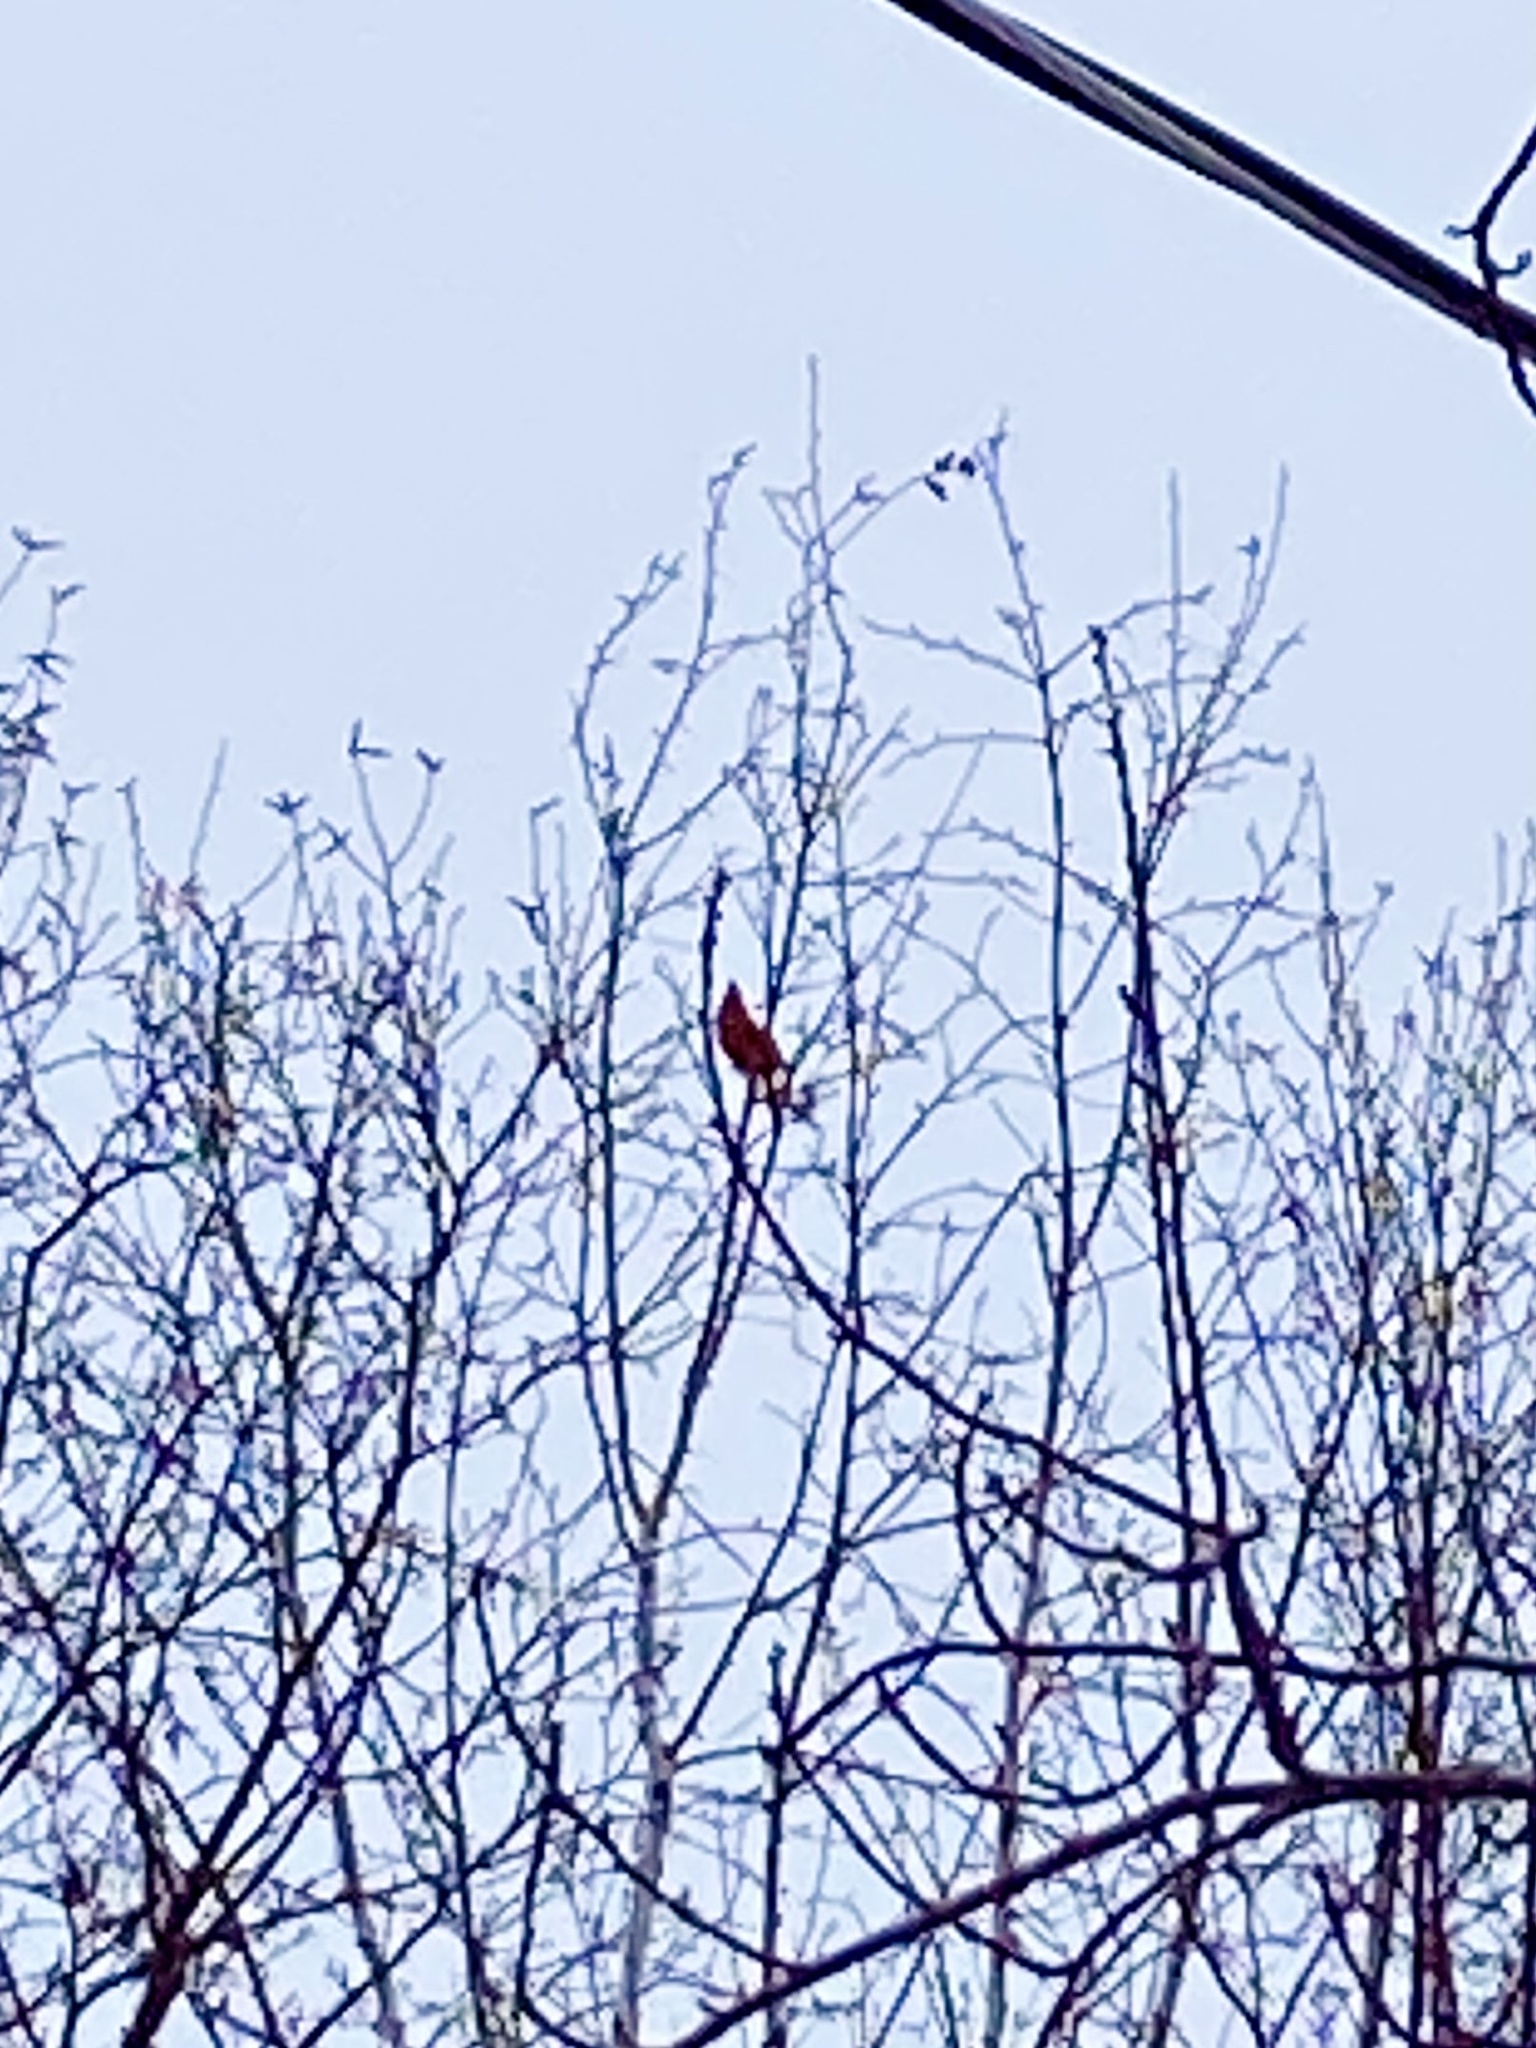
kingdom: Animalia
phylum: Chordata
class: Aves
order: Passeriformes
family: Cardinalidae
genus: Cardinalis
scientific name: Cardinalis cardinalis
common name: Northern cardinal
